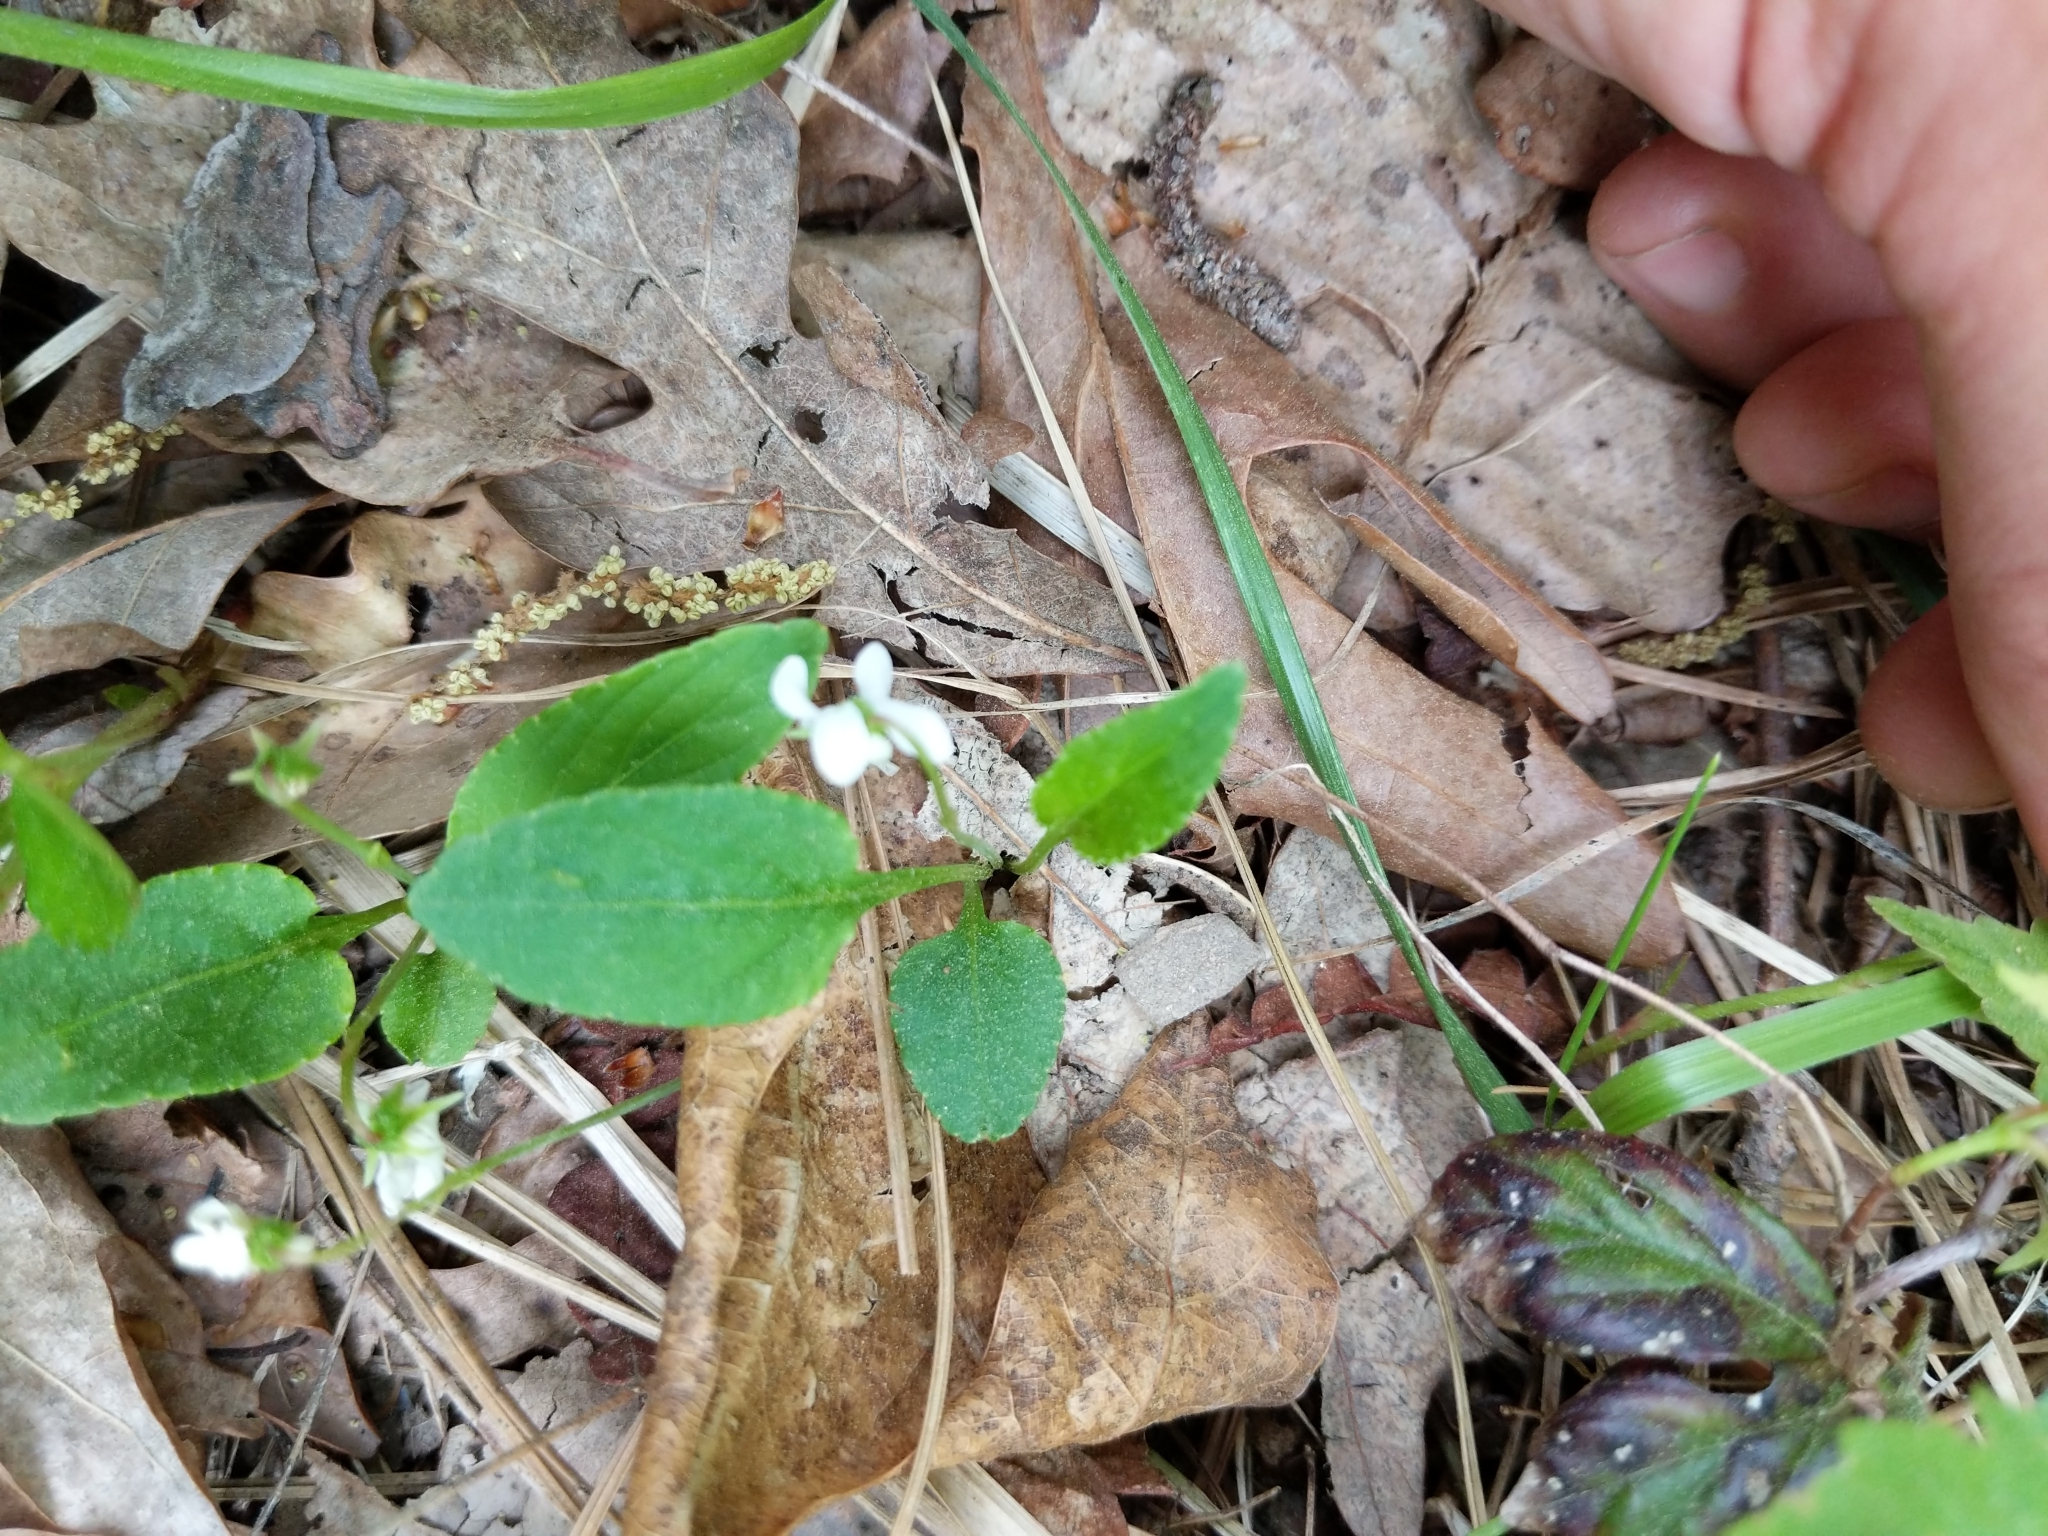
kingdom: Plantae
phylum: Tracheophyta
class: Magnoliopsida
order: Malpighiales
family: Violaceae
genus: Viola
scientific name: Viola primulifolia
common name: Primrose-leaf violet
